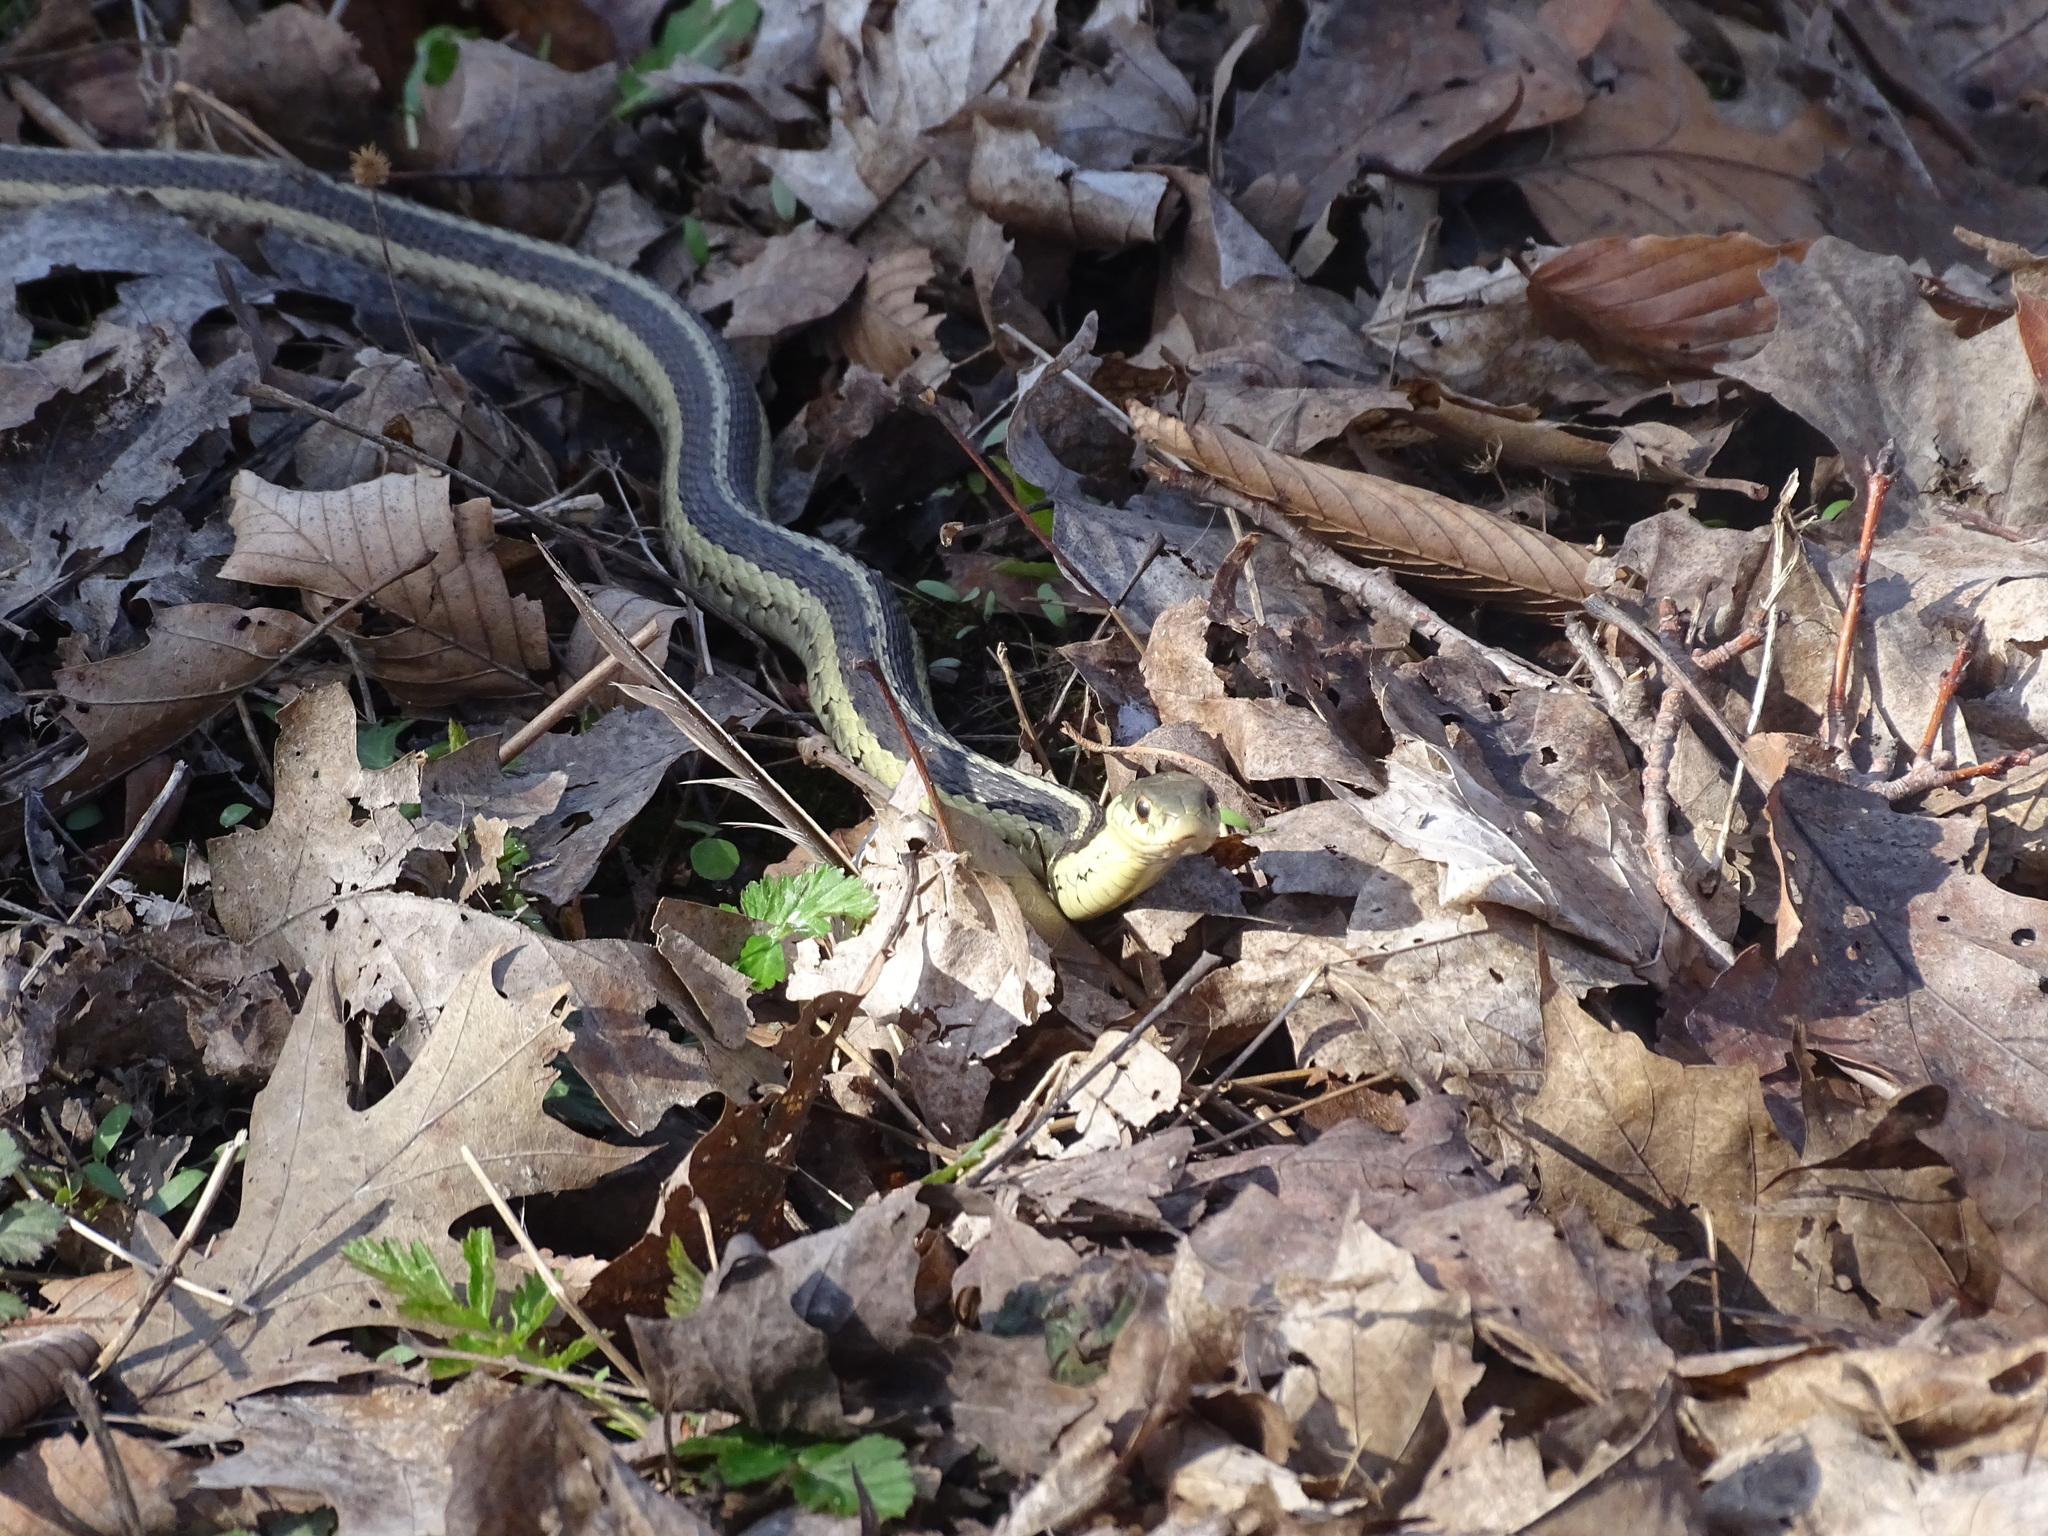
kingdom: Animalia
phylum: Chordata
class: Squamata
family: Colubridae
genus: Thamnophis
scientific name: Thamnophis sirtalis
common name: Common garter snake
